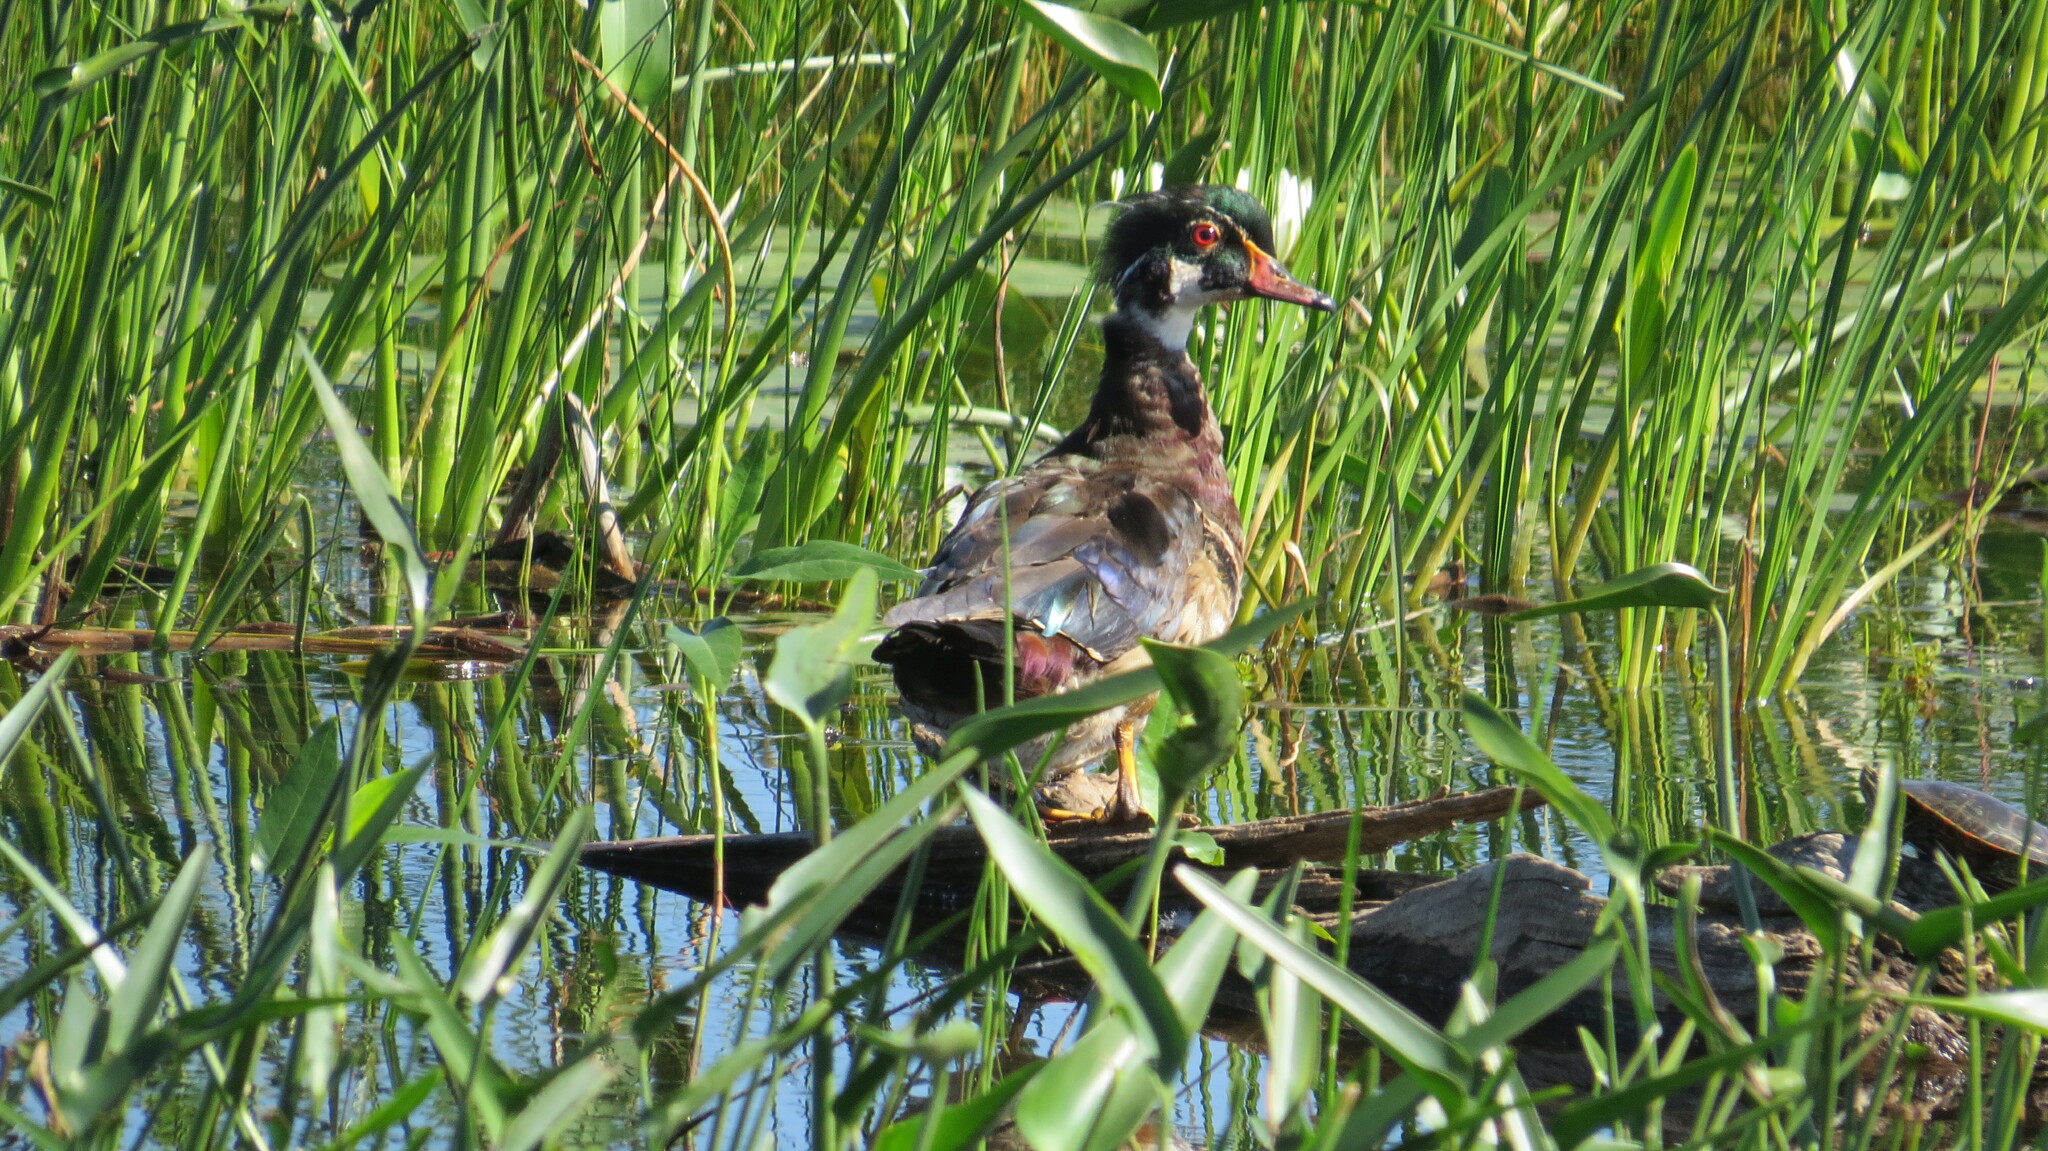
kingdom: Animalia
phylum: Chordata
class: Aves
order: Anseriformes
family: Anatidae
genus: Aix
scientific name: Aix sponsa
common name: Wood duck
